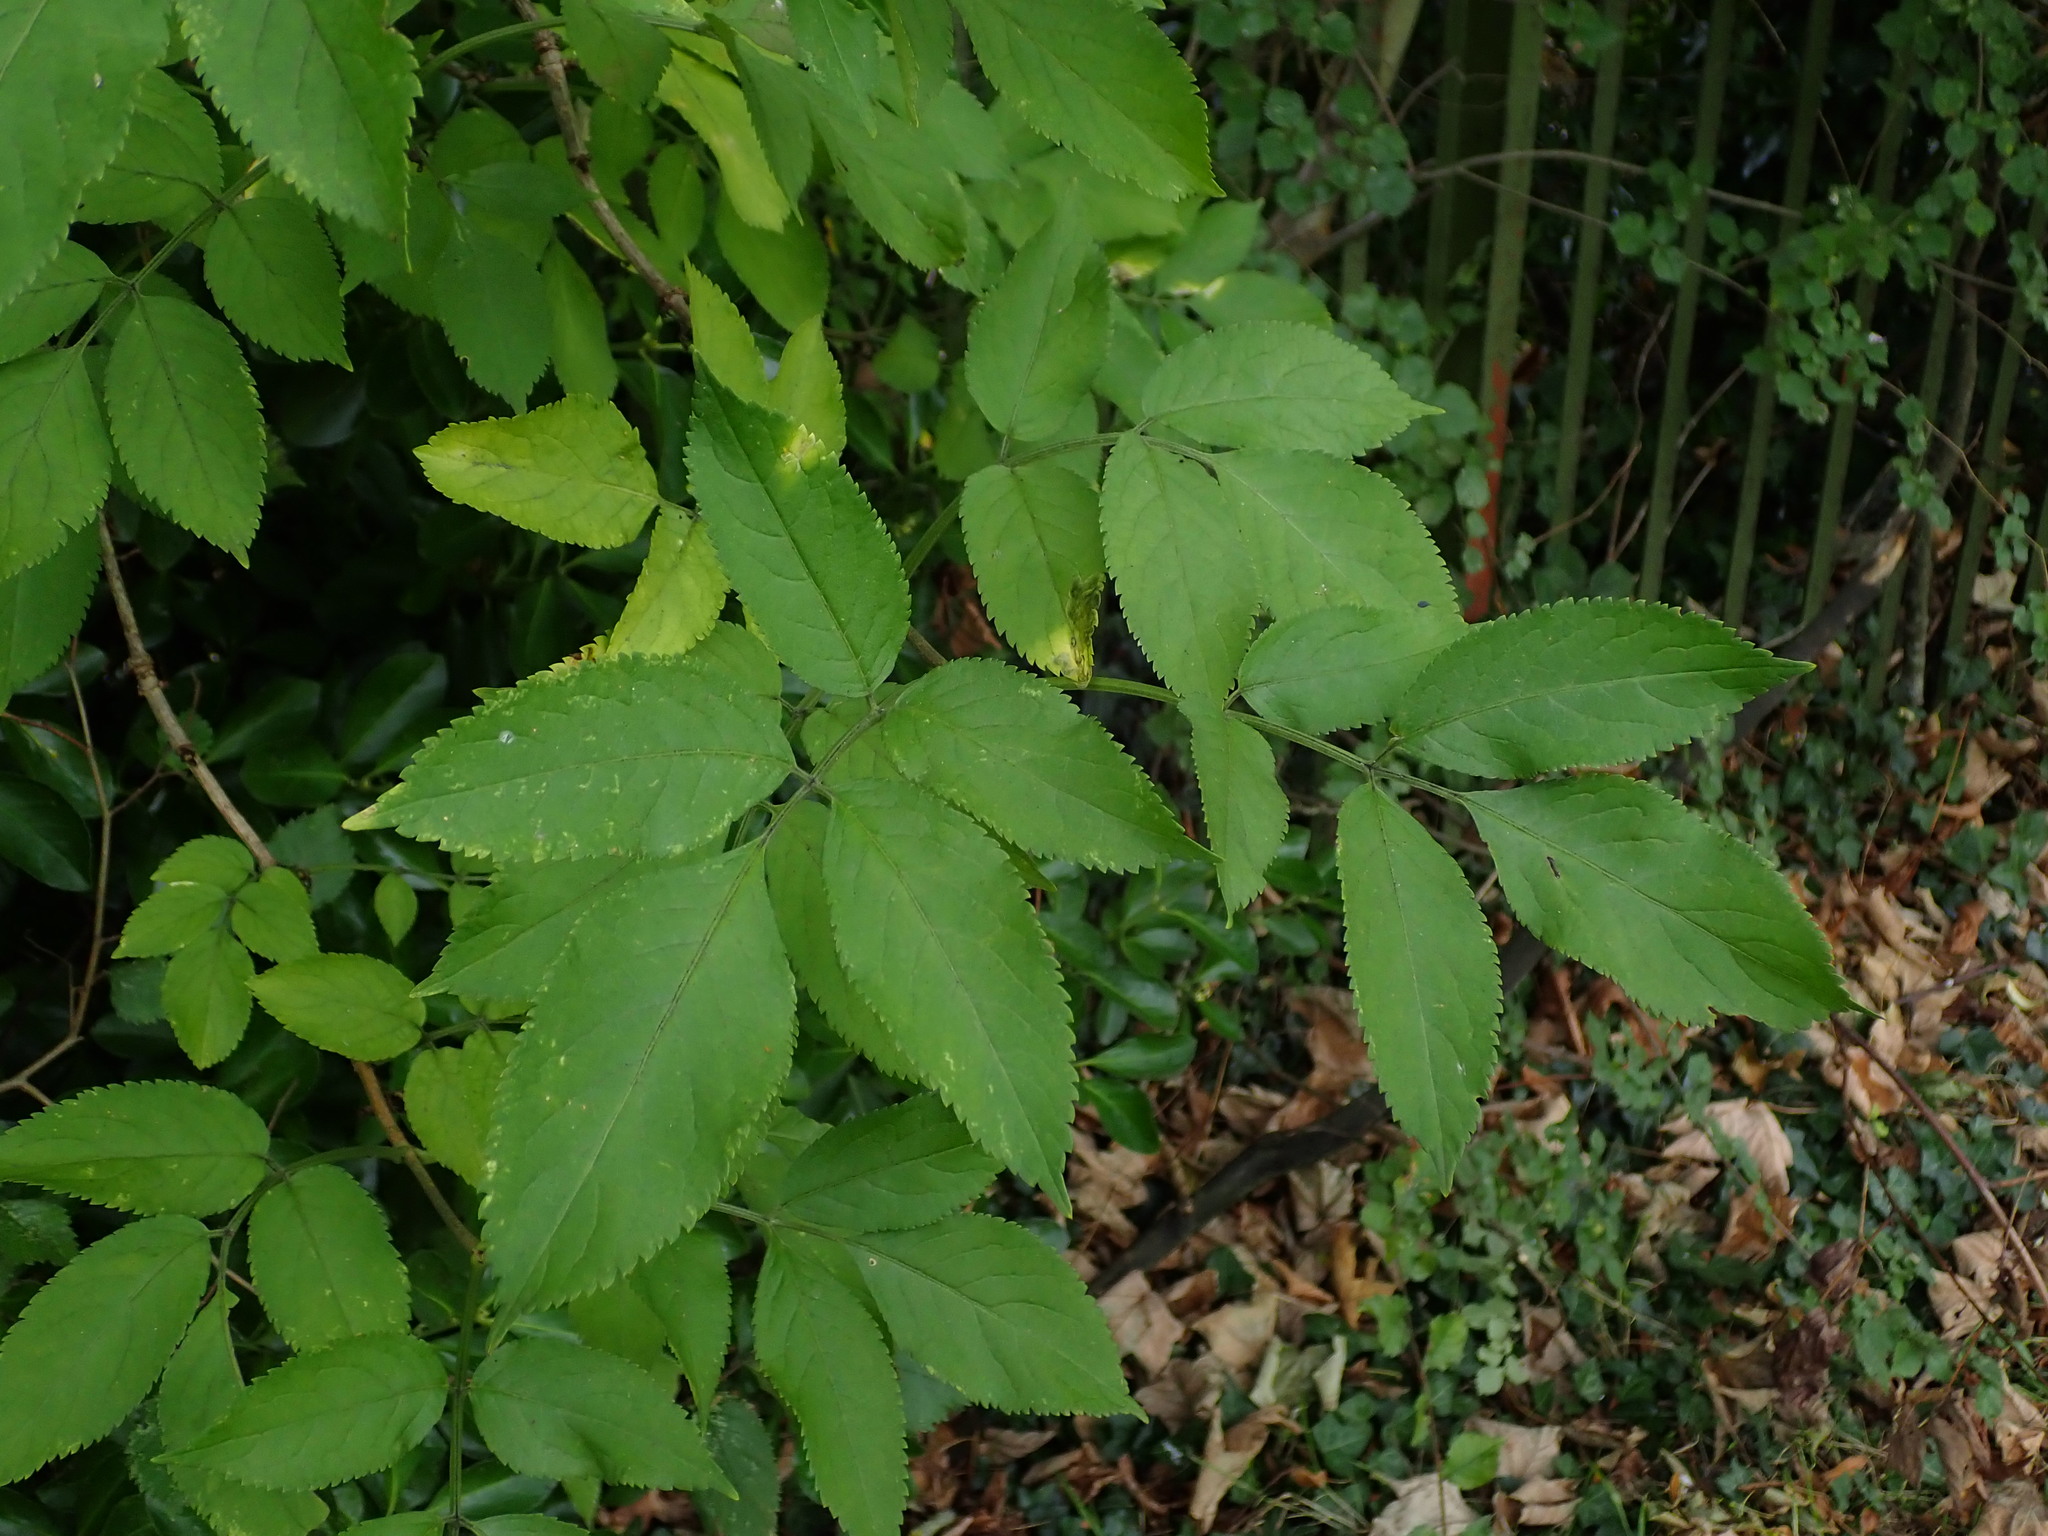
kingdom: Plantae
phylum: Tracheophyta
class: Magnoliopsida
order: Dipsacales
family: Viburnaceae
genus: Sambucus
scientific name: Sambucus nigra
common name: Elder
